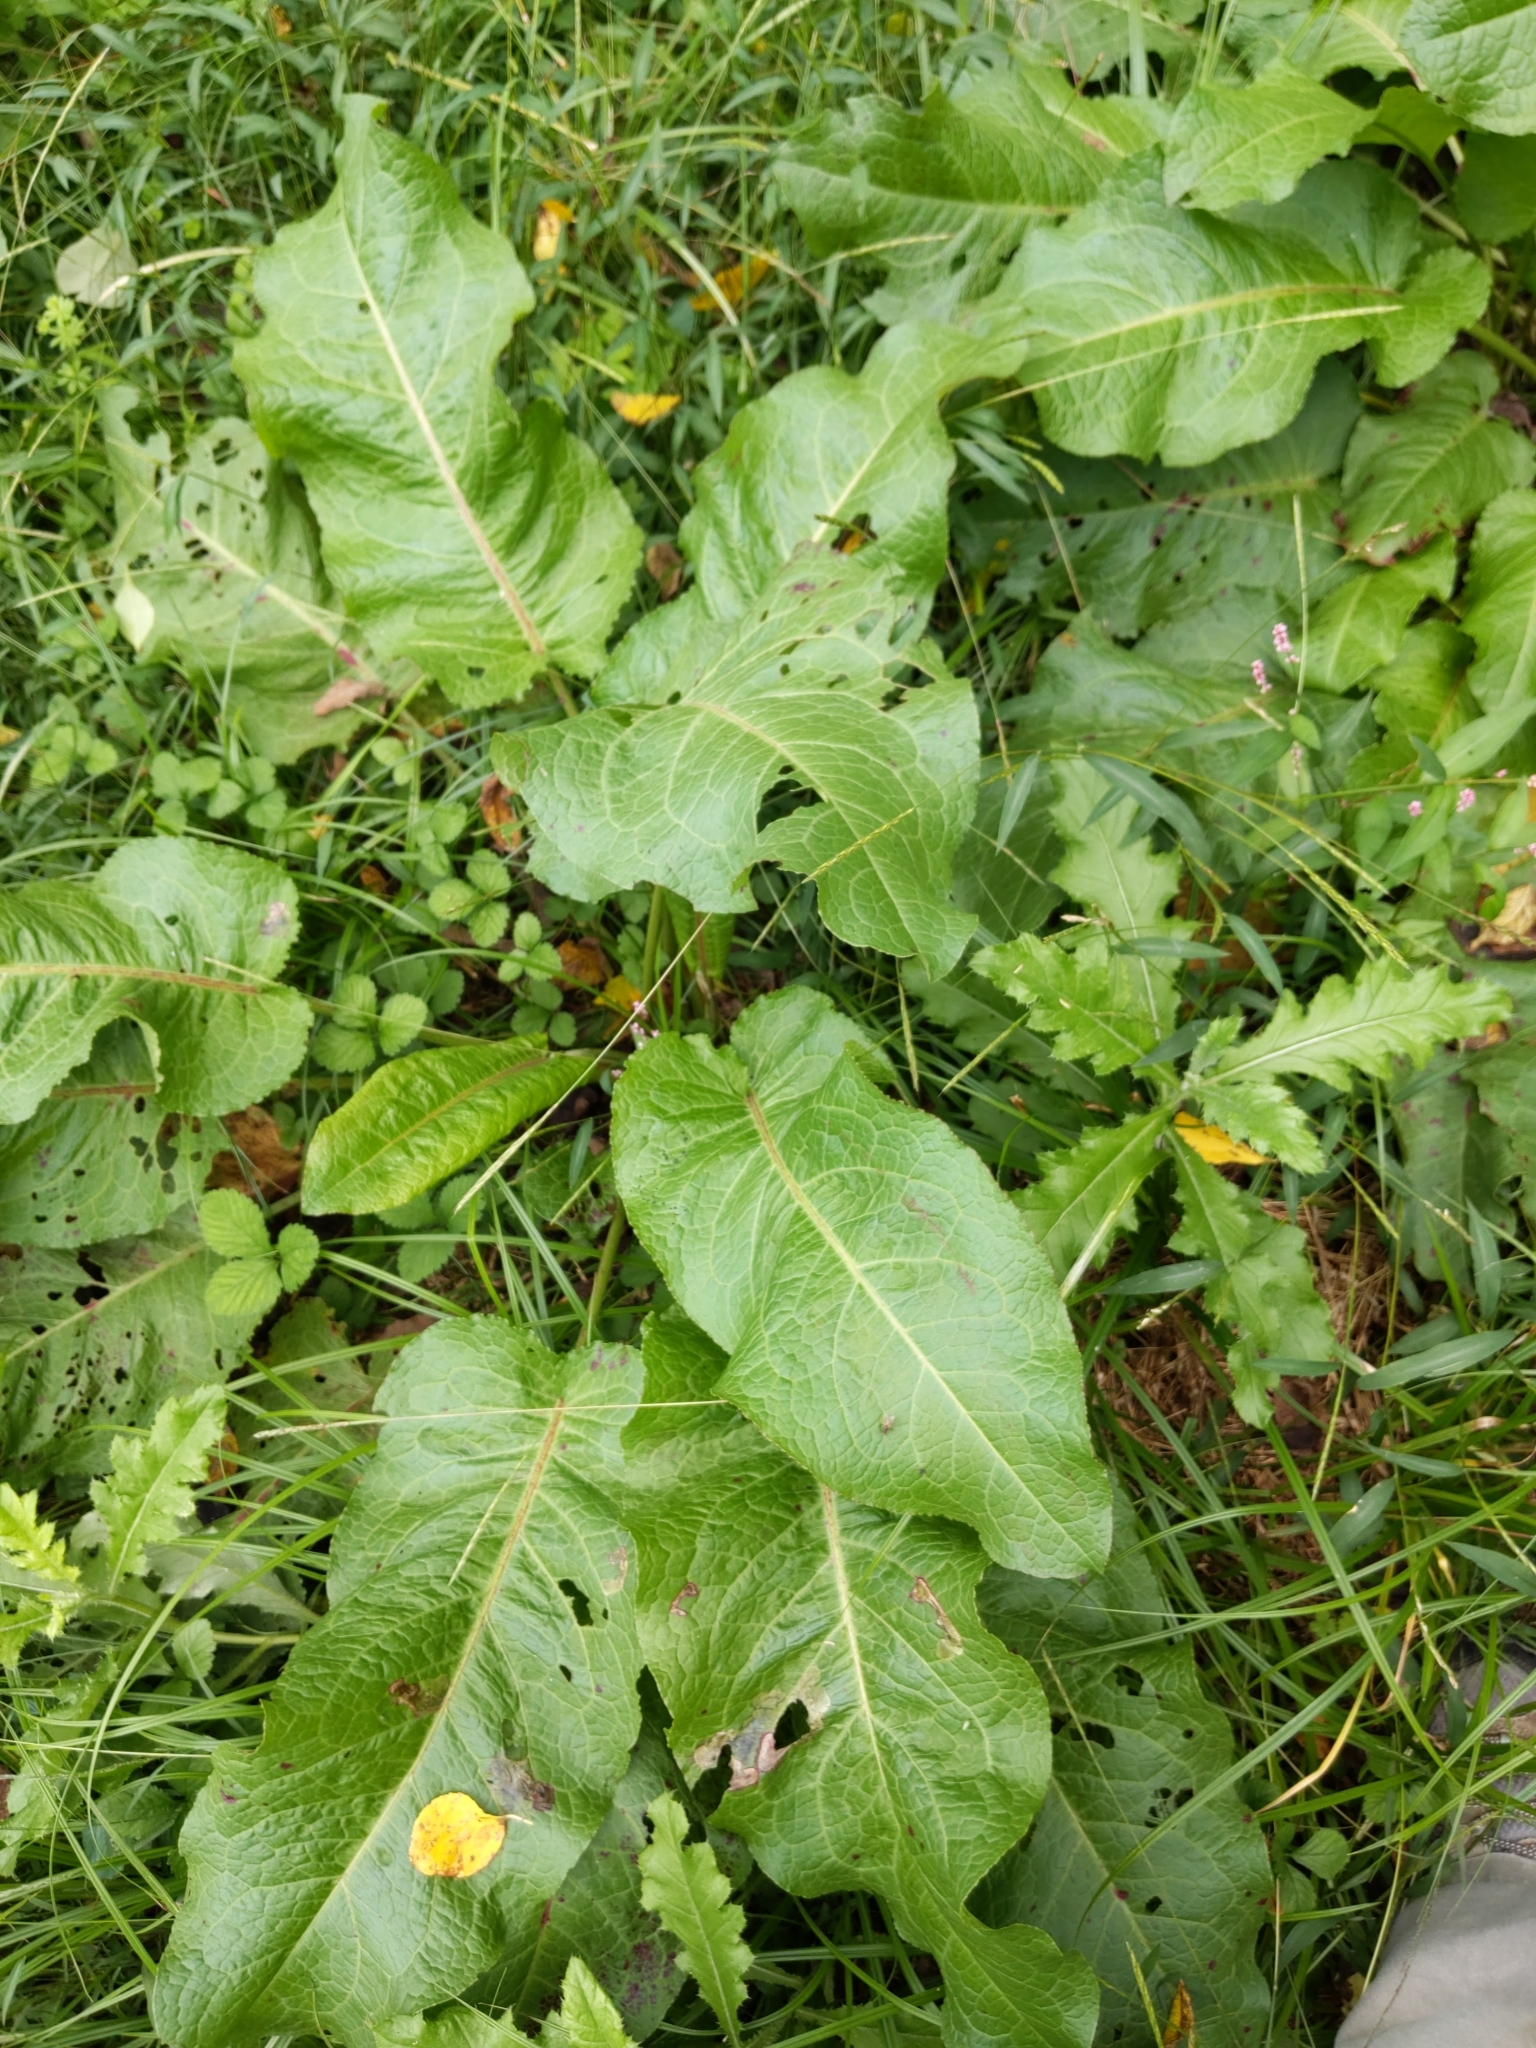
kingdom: Plantae
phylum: Tracheophyta
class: Magnoliopsida
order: Caryophyllales
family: Polygonaceae
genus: Rumex
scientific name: Rumex obtusifolius
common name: Bitter dock
